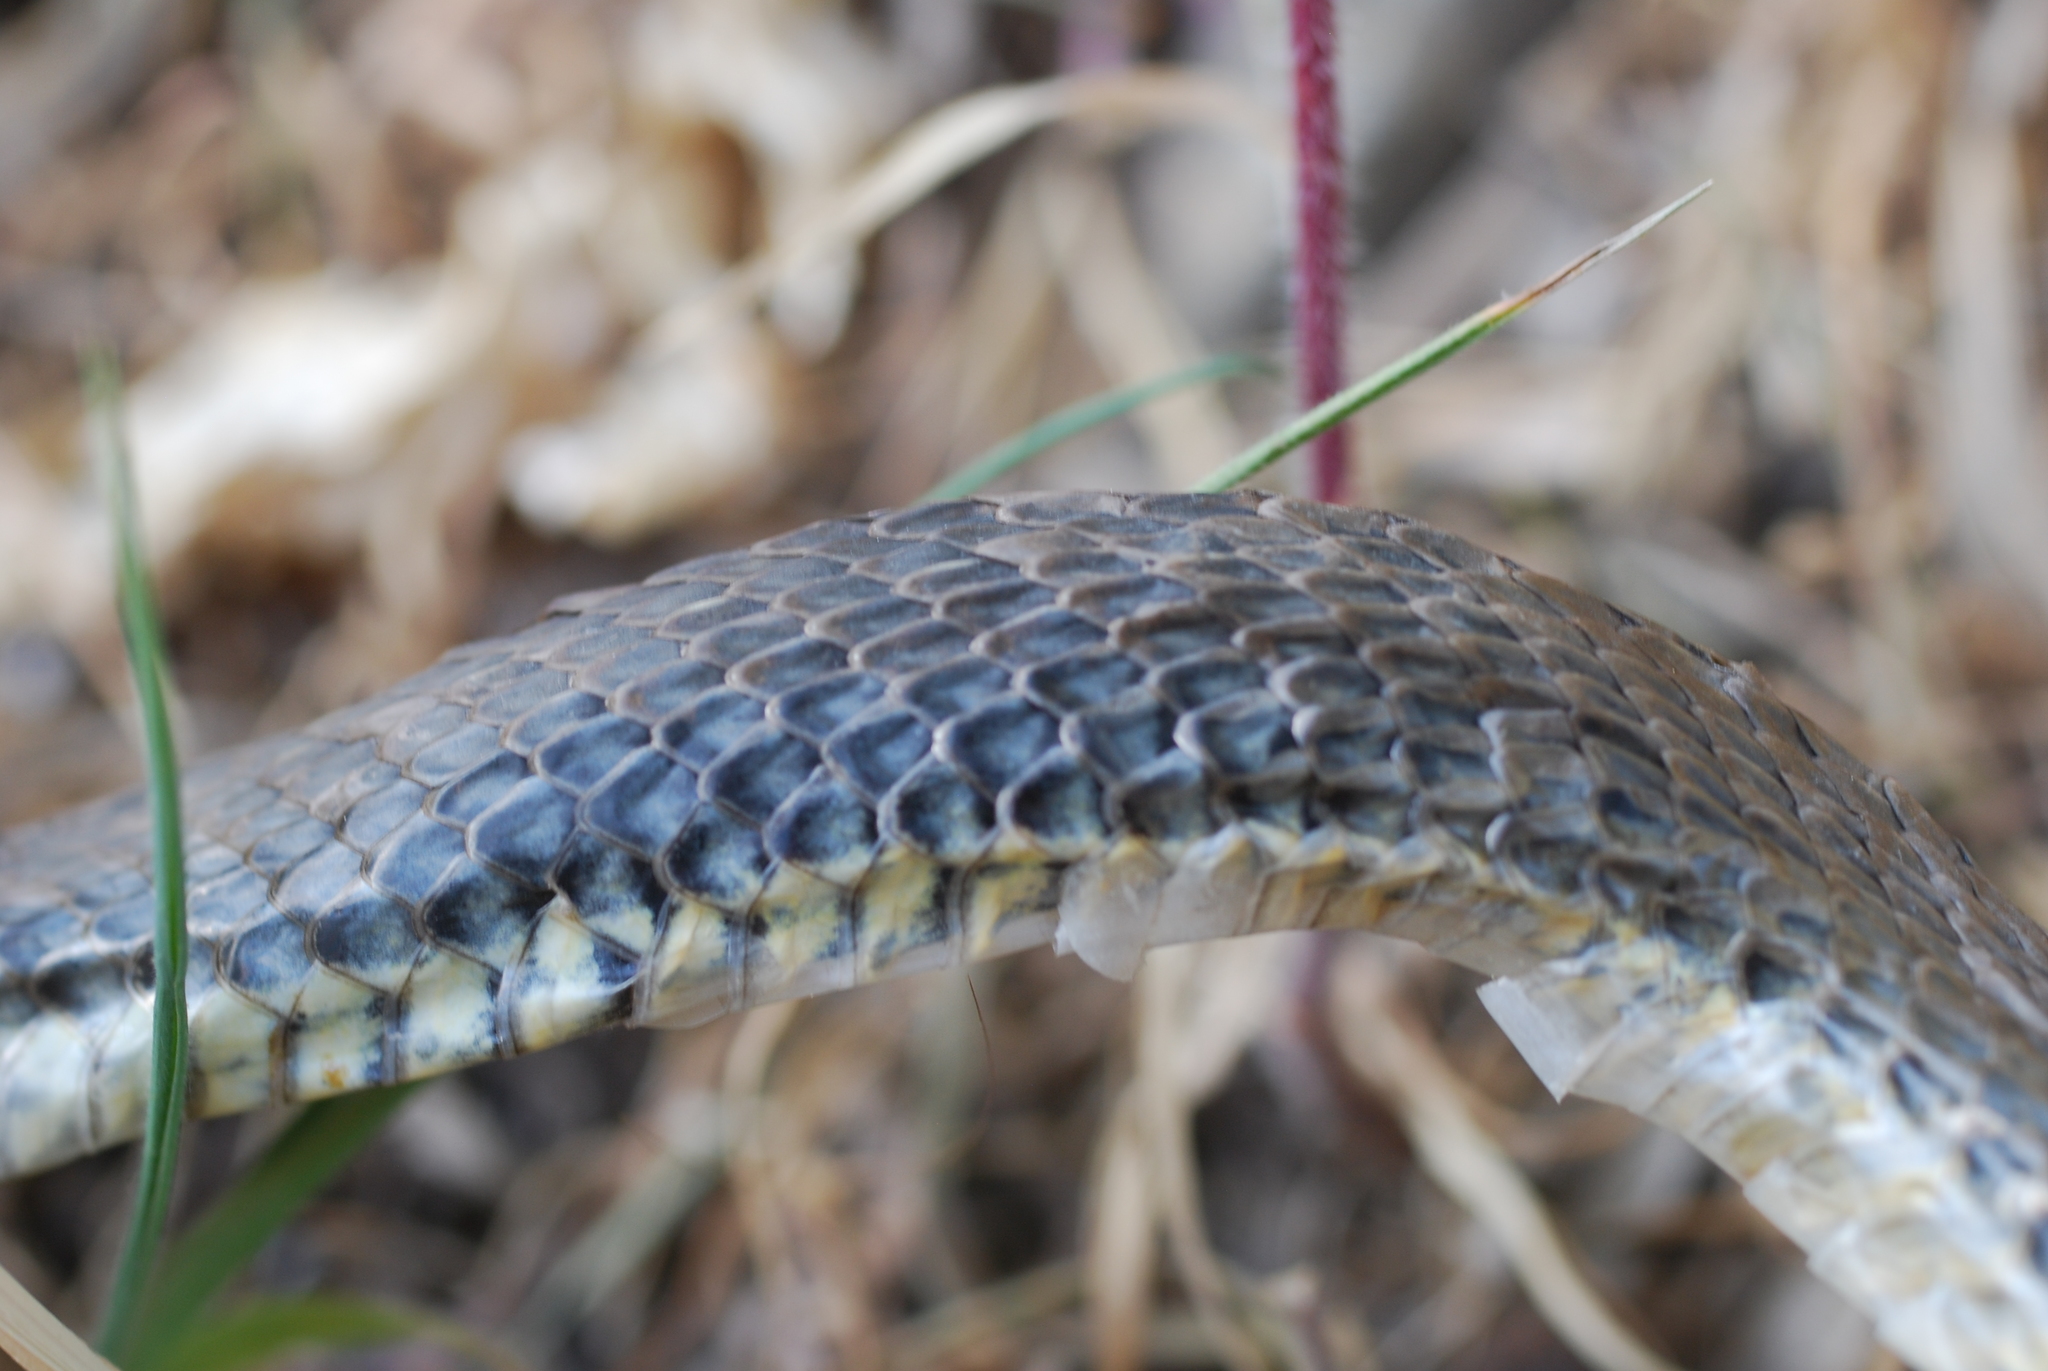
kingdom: Animalia
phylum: Chordata
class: Squamata
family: Psammophiidae
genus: Malpolon
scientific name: Malpolon monspessulanus
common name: Montpellier snake
